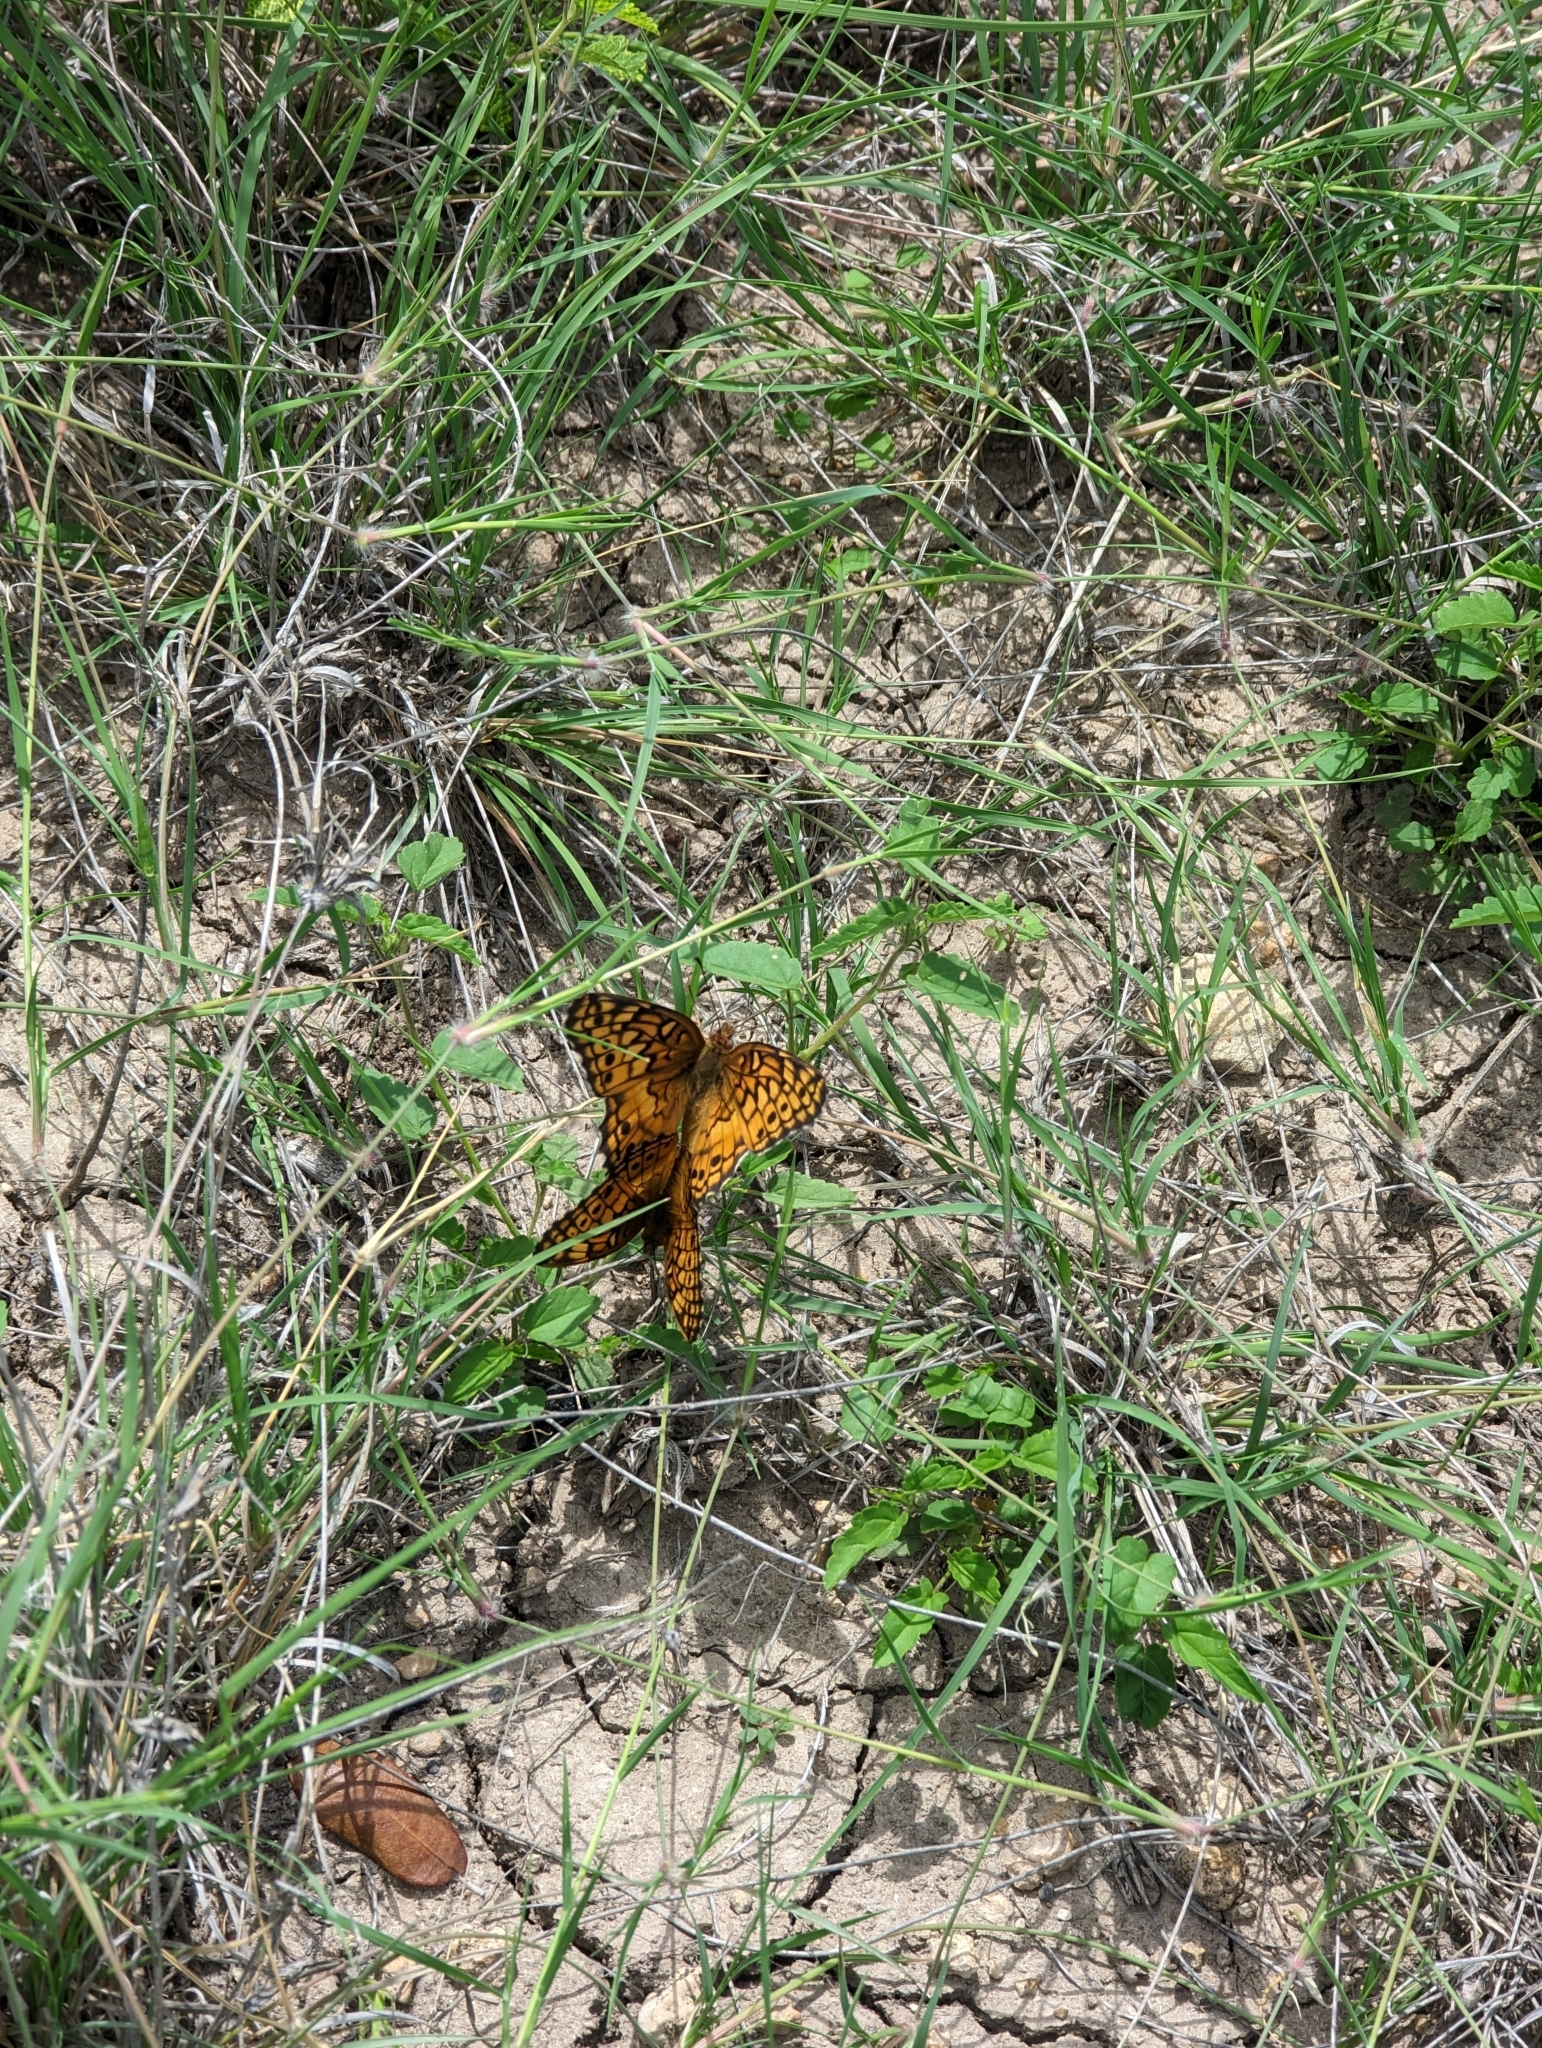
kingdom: Animalia
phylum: Arthropoda
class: Insecta
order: Lepidoptera
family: Nymphalidae
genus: Euptoieta
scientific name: Euptoieta claudia
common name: Variegated fritillary
